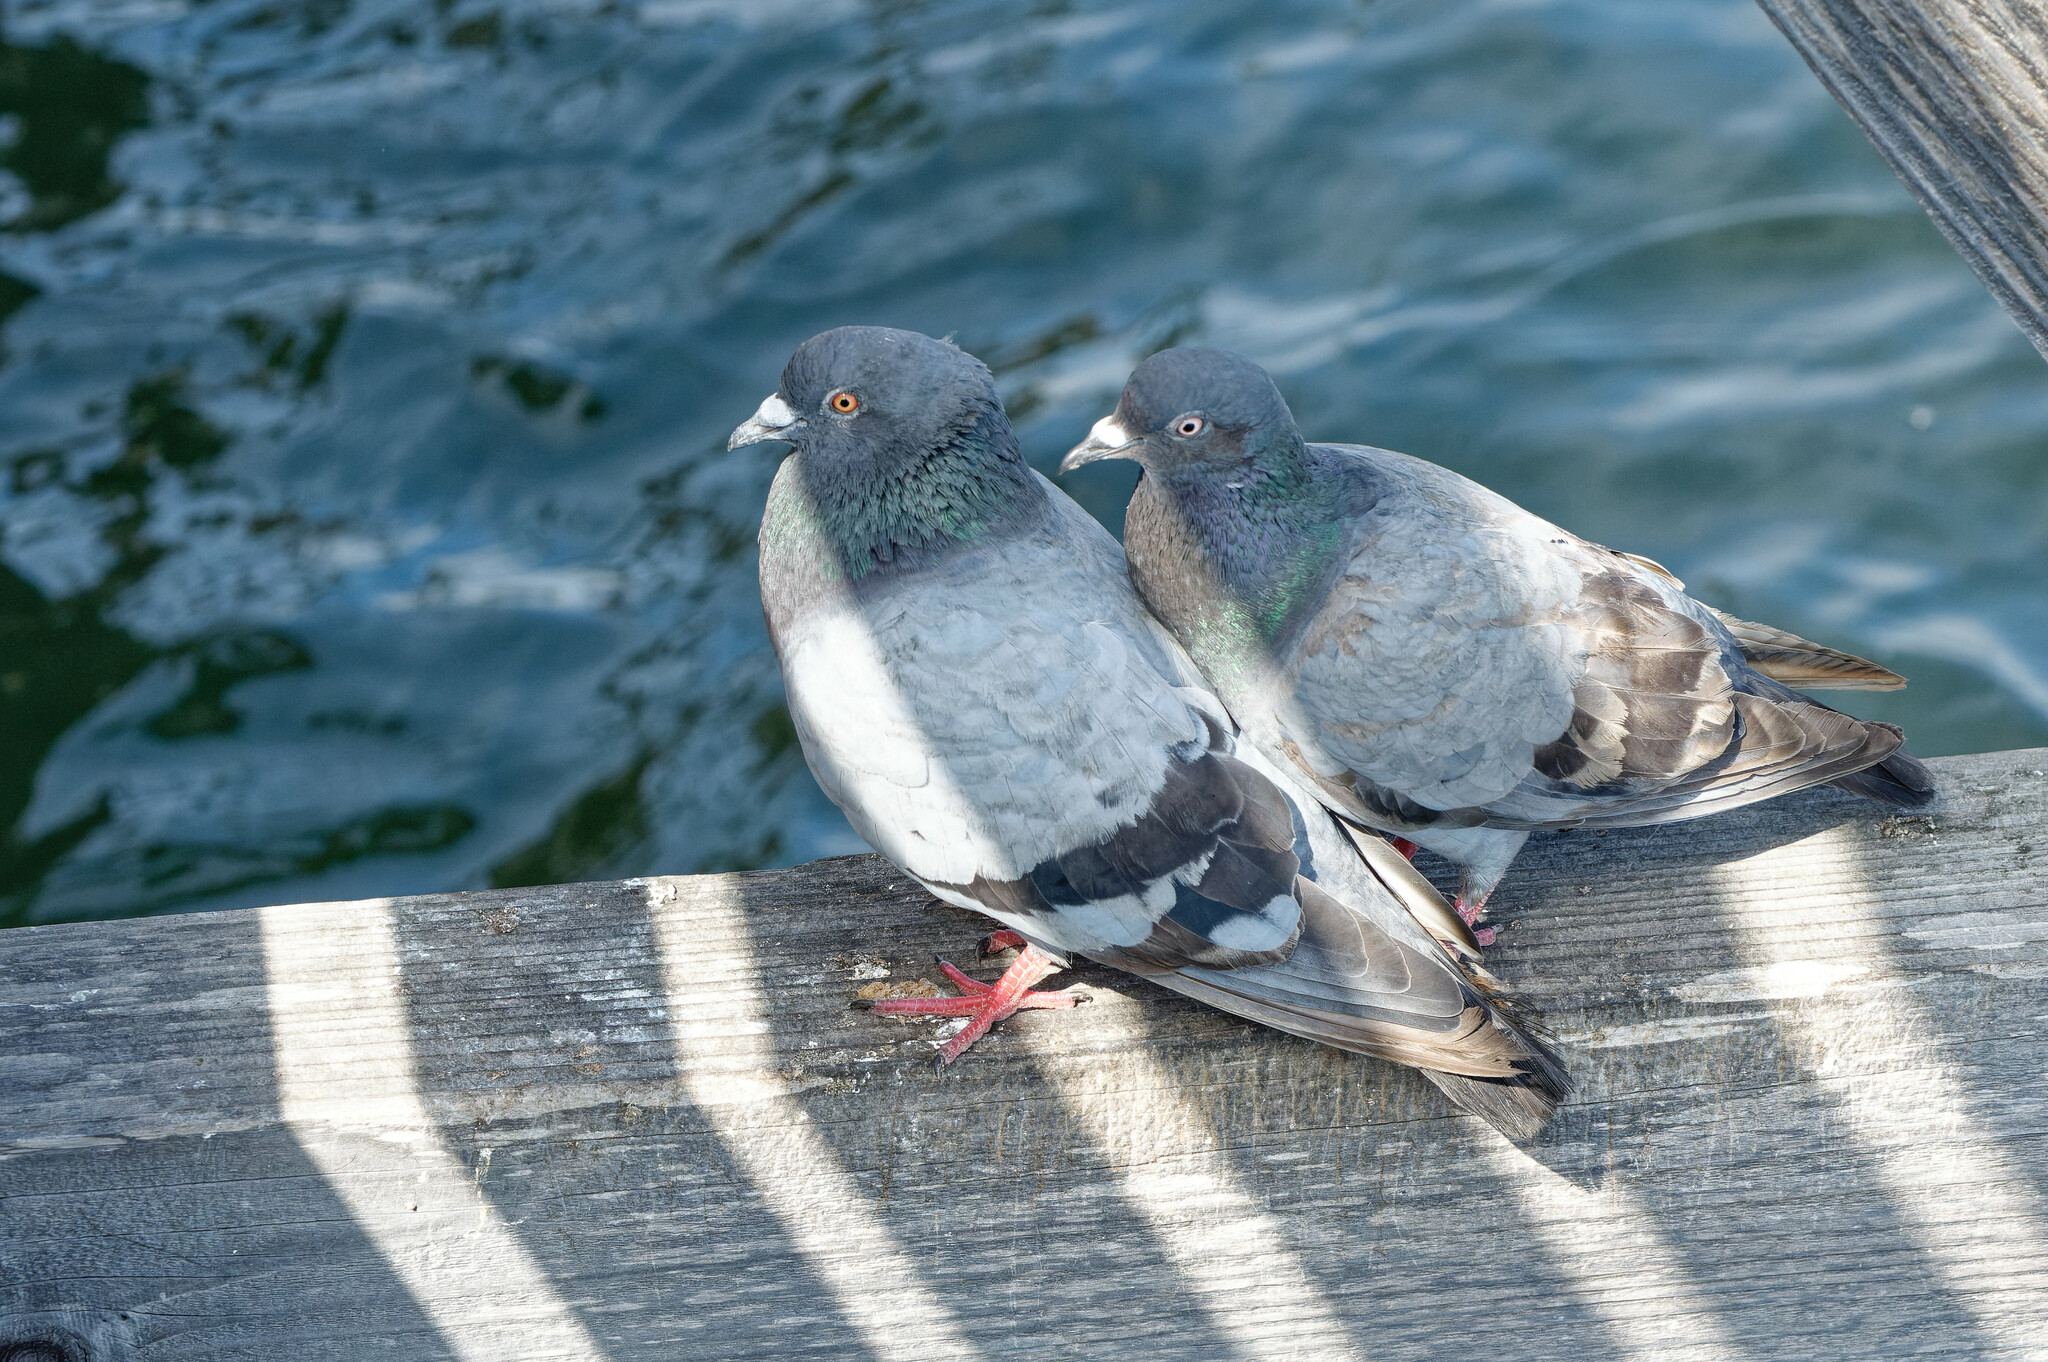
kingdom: Animalia
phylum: Chordata
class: Aves
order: Columbiformes
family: Columbidae
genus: Columba
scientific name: Columba livia
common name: Rock pigeon
